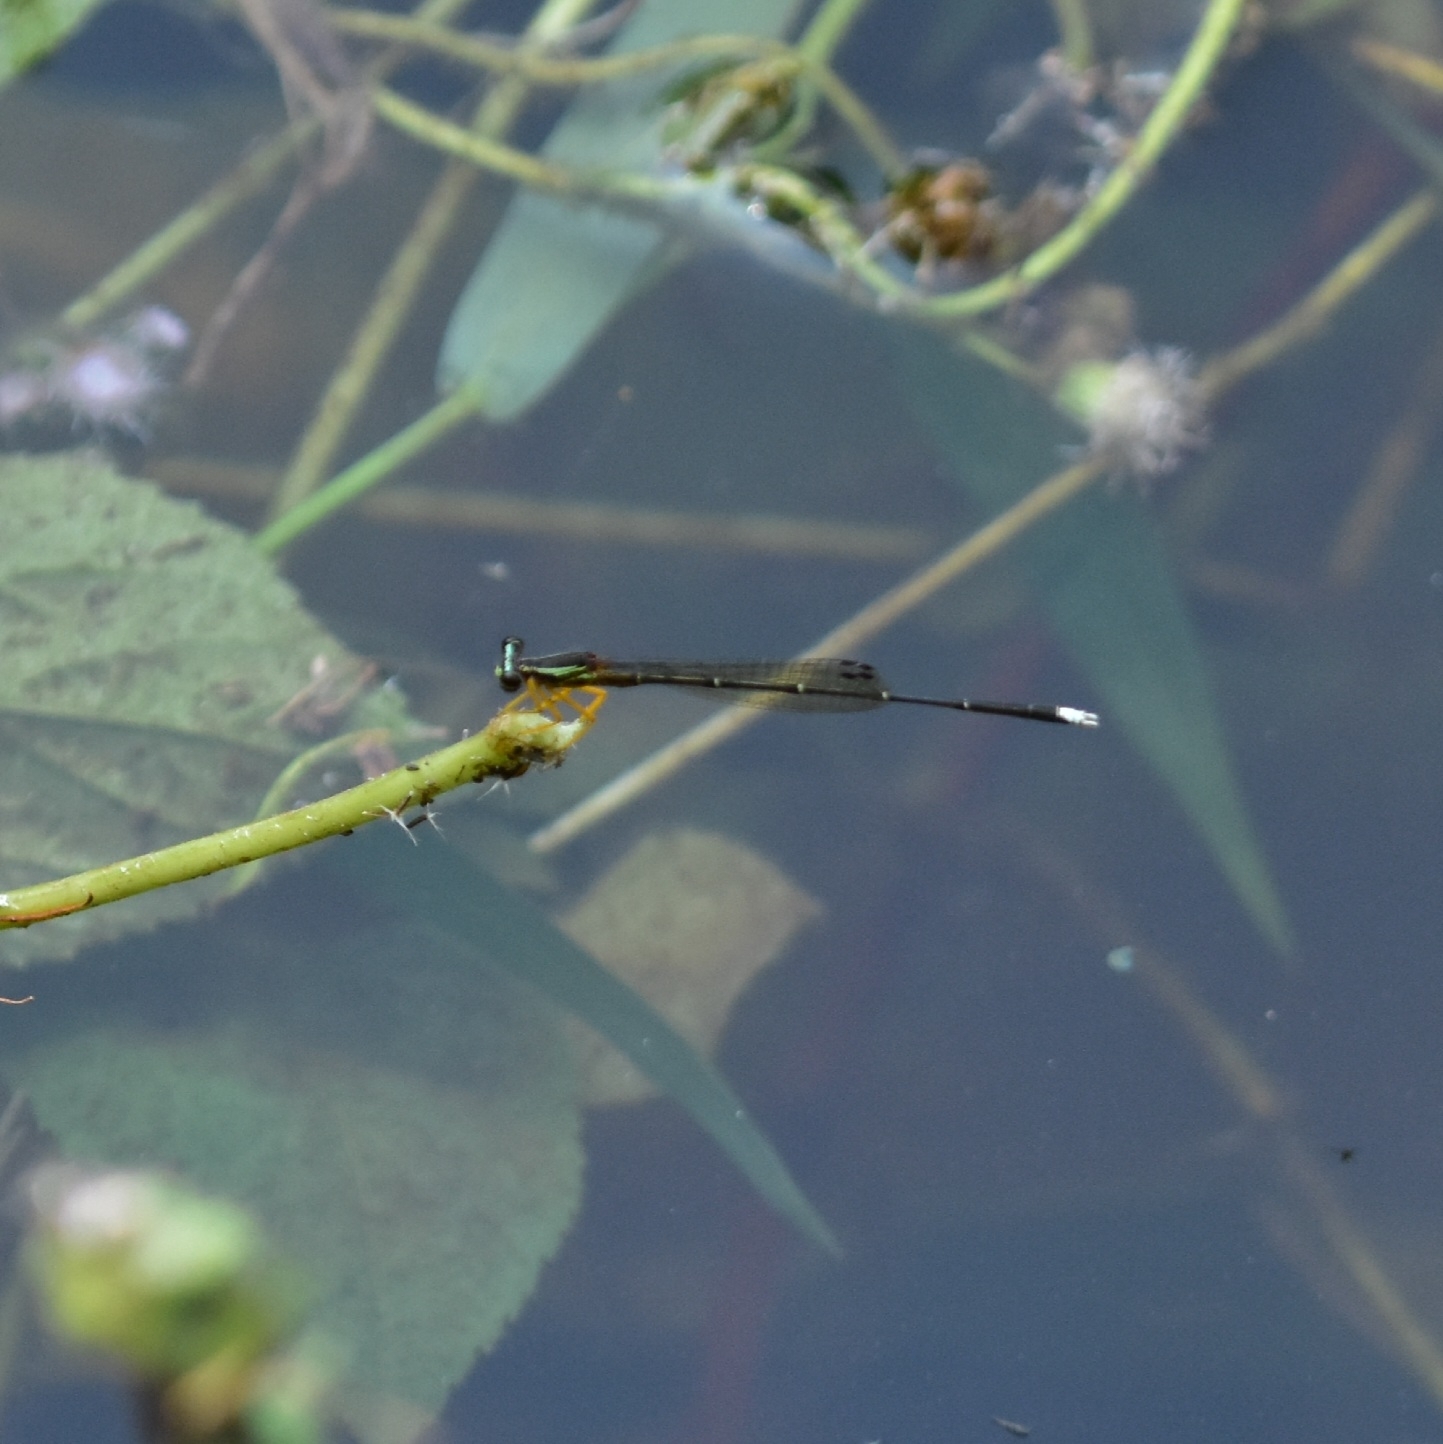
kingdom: Animalia
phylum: Arthropoda
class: Insecta
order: Odonata
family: Platycnemididae
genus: Copera
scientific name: Copera marginipes
